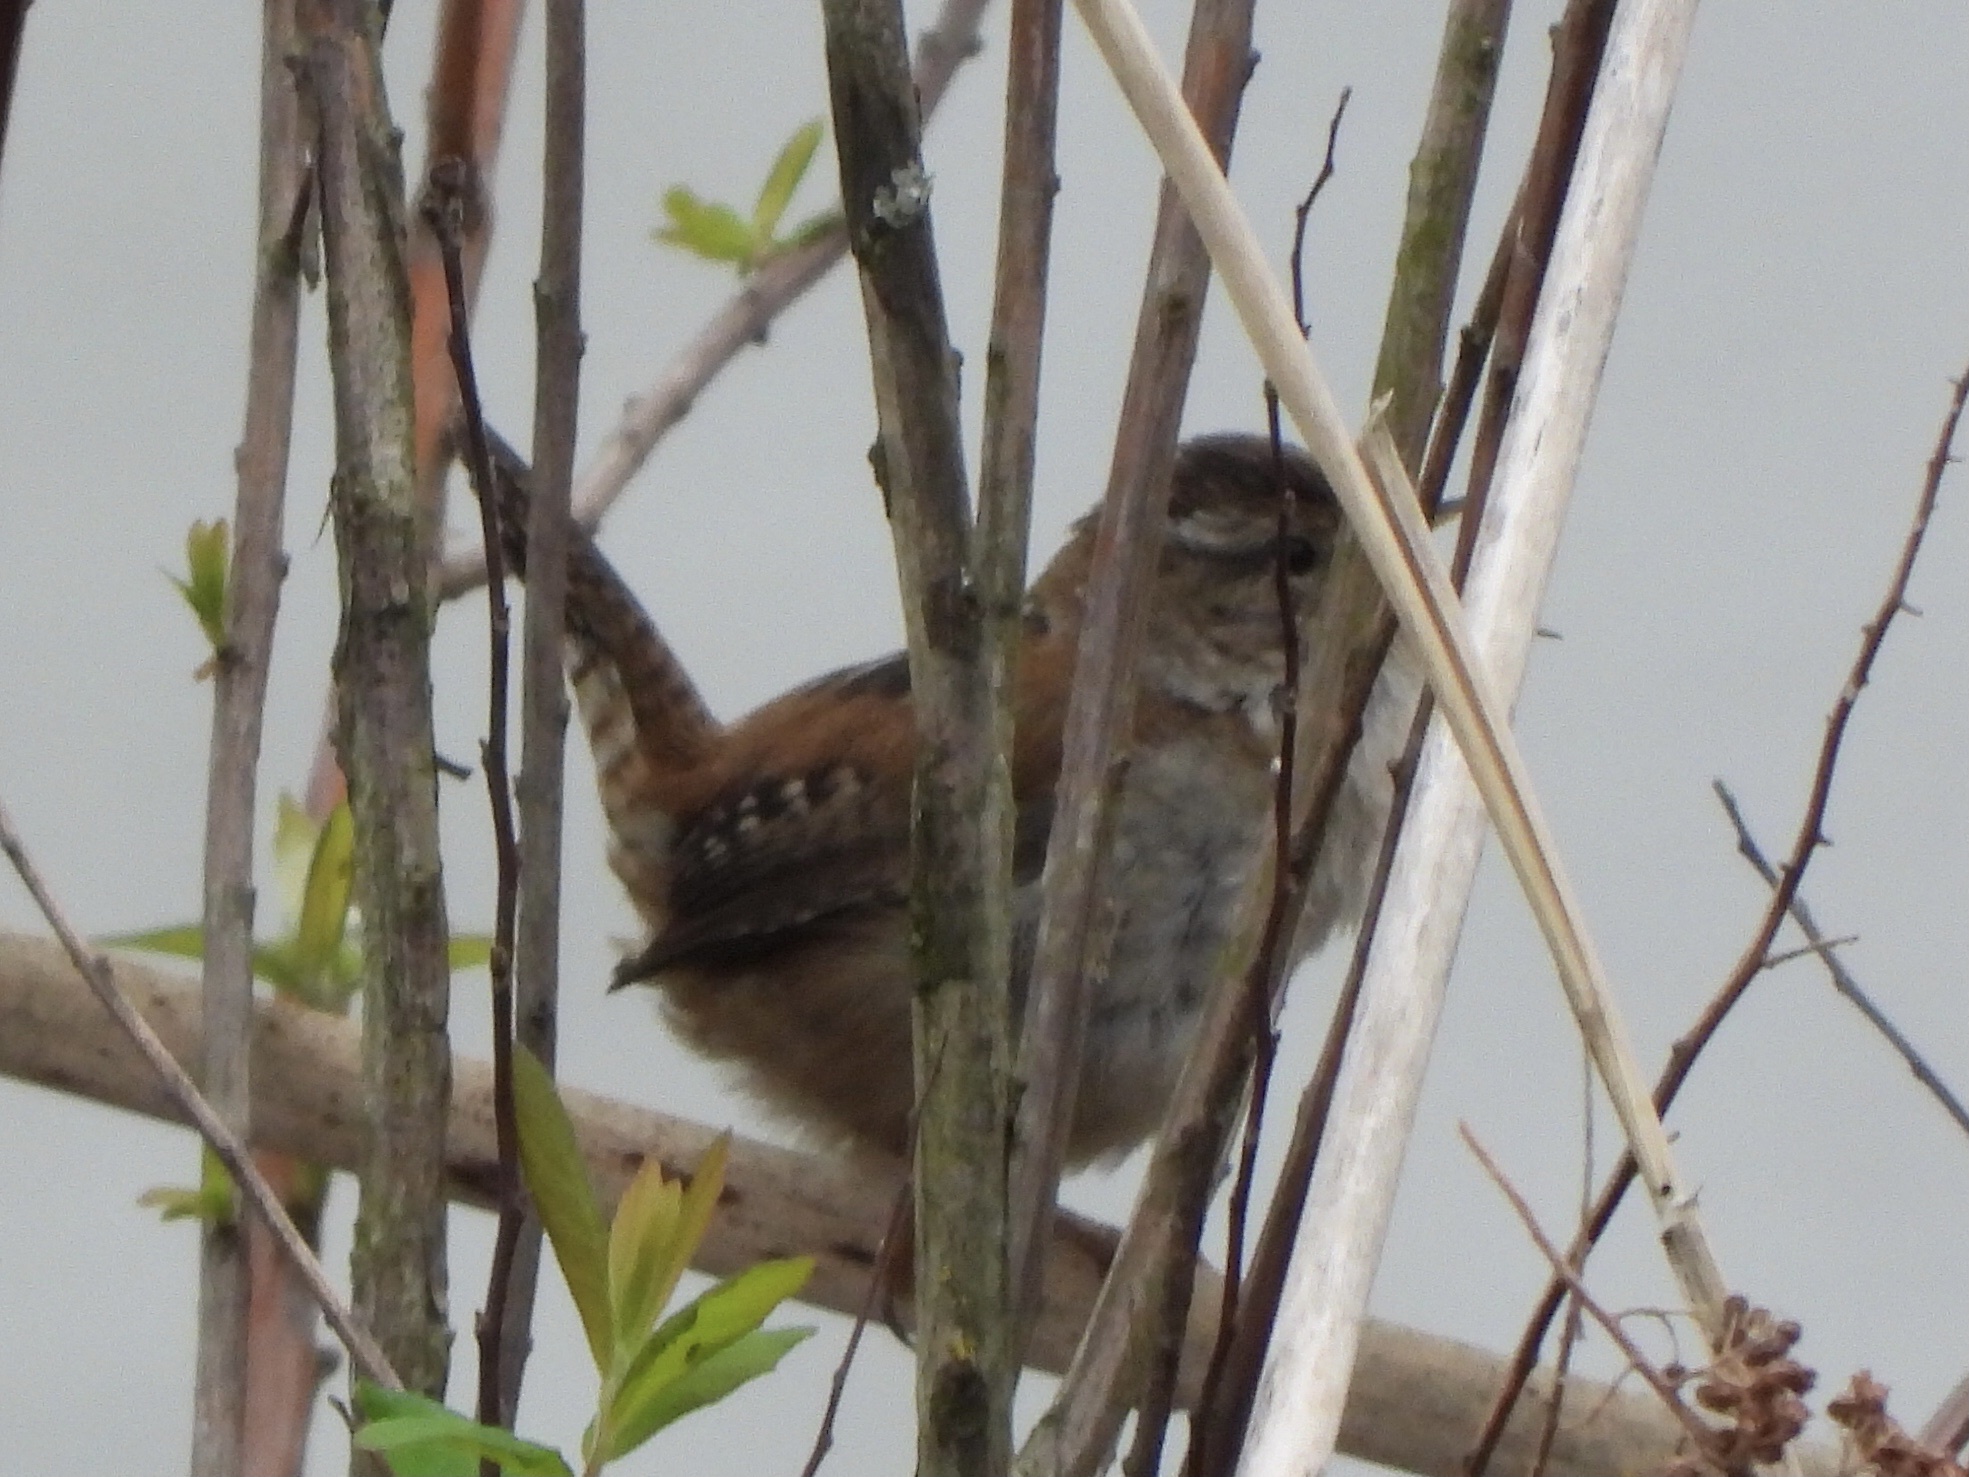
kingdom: Animalia
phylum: Chordata
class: Aves
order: Passeriformes
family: Troglodytidae
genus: Cistothorus
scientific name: Cistothorus palustris
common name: Marsh wren
